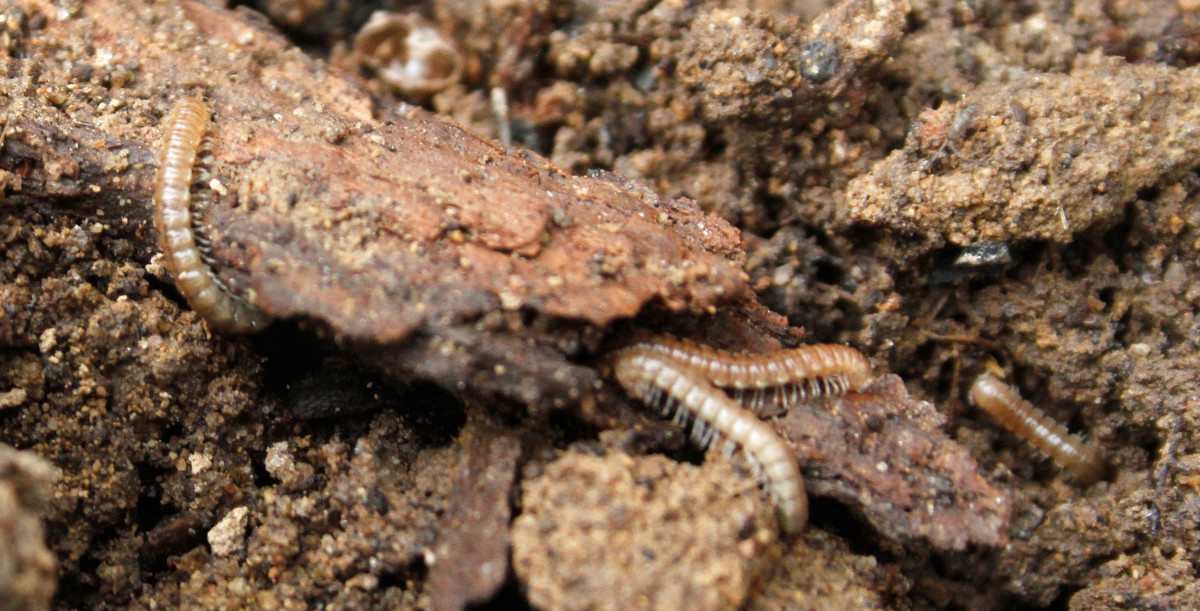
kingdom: Animalia
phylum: Arthropoda
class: Diplopoda
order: Polydesmida
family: Paradoxosomatidae
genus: Oxidus
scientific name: Oxidus gracilis
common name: Greenhouse millipede
